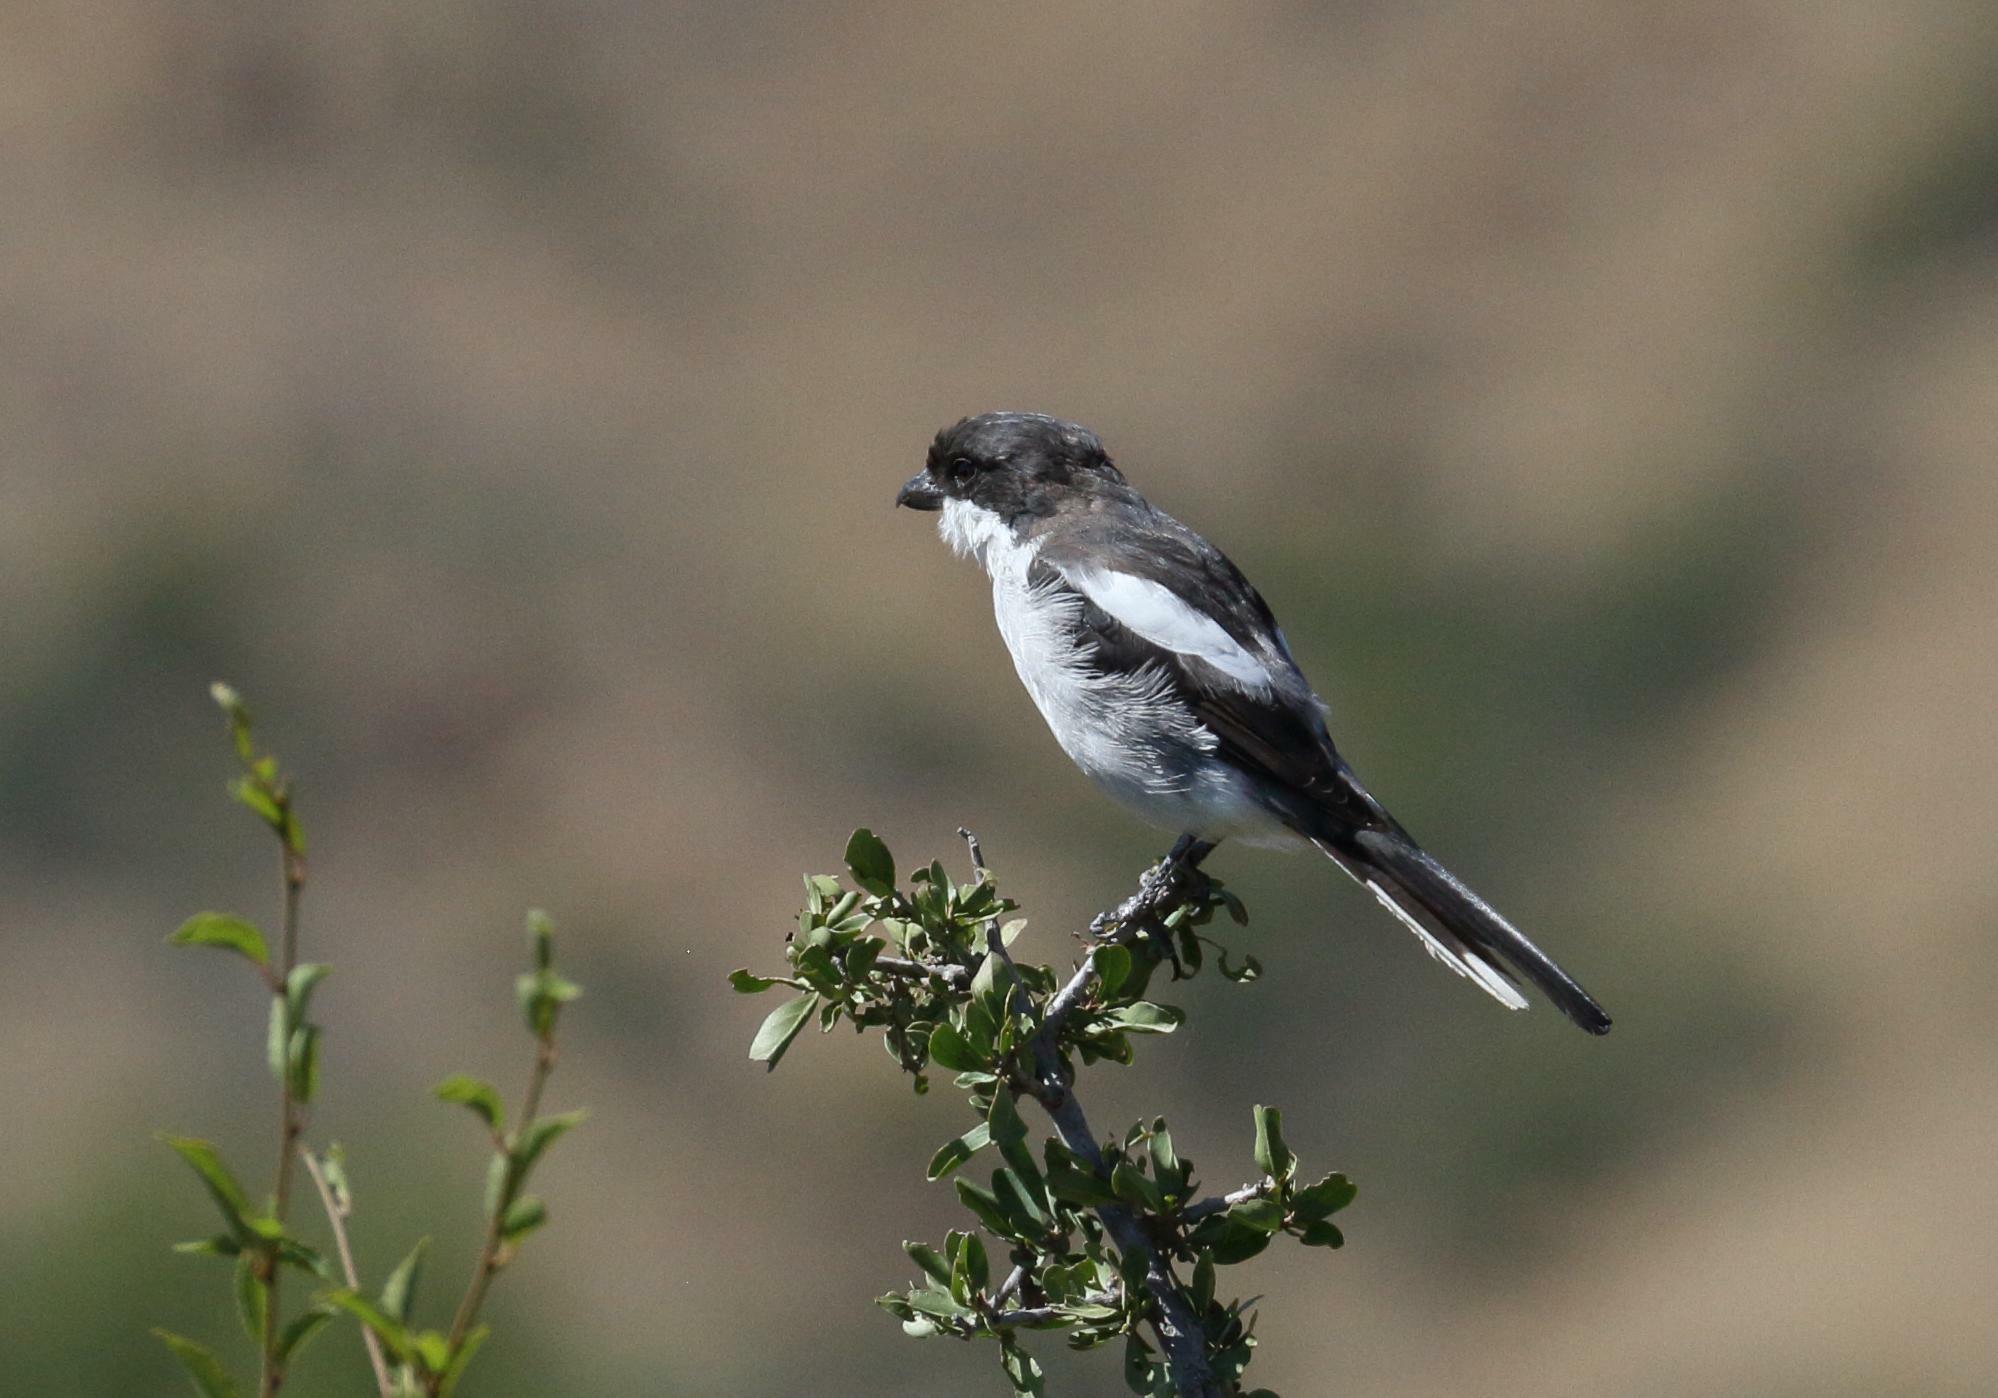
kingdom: Animalia
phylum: Chordata
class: Aves
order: Passeriformes
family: Laniidae
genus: Lanius
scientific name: Lanius collaris
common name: Southern fiscal
